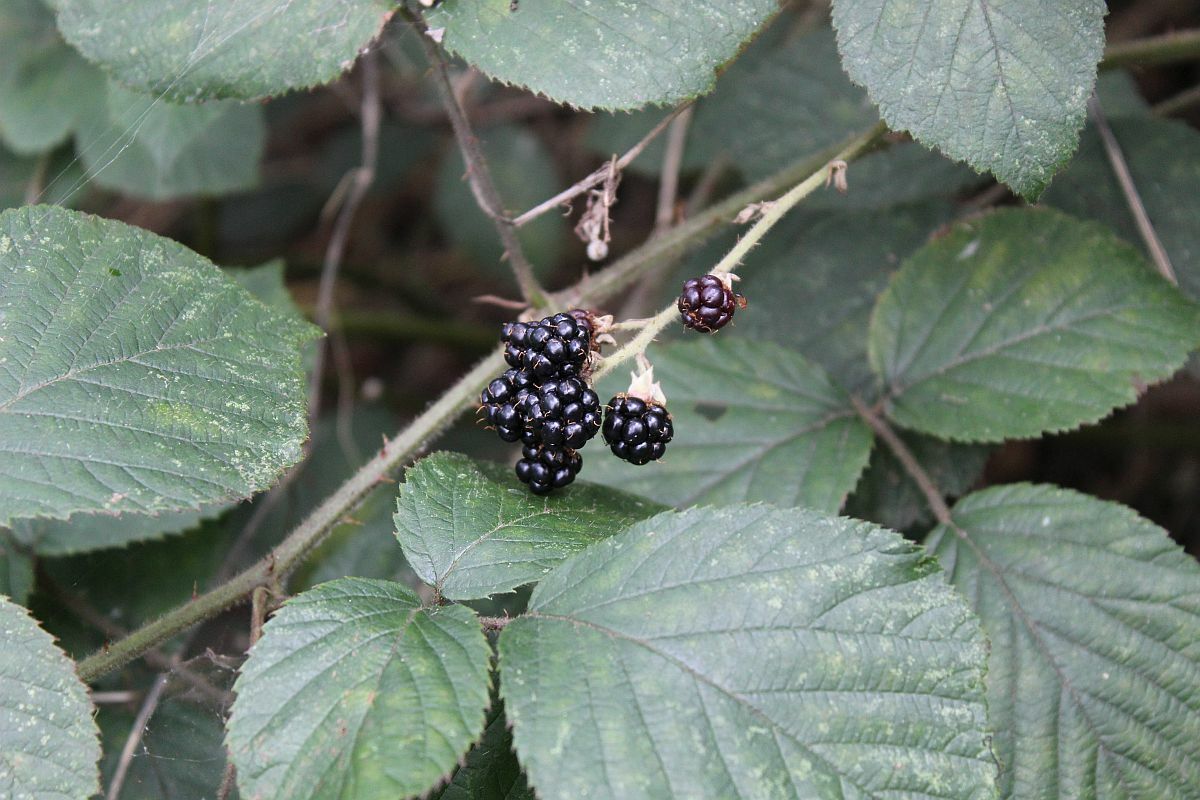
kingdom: Plantae
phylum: Tracheophyta
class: Magnoliopsida
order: Rosales
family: Rosaceae
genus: Rubus
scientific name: Rubus
